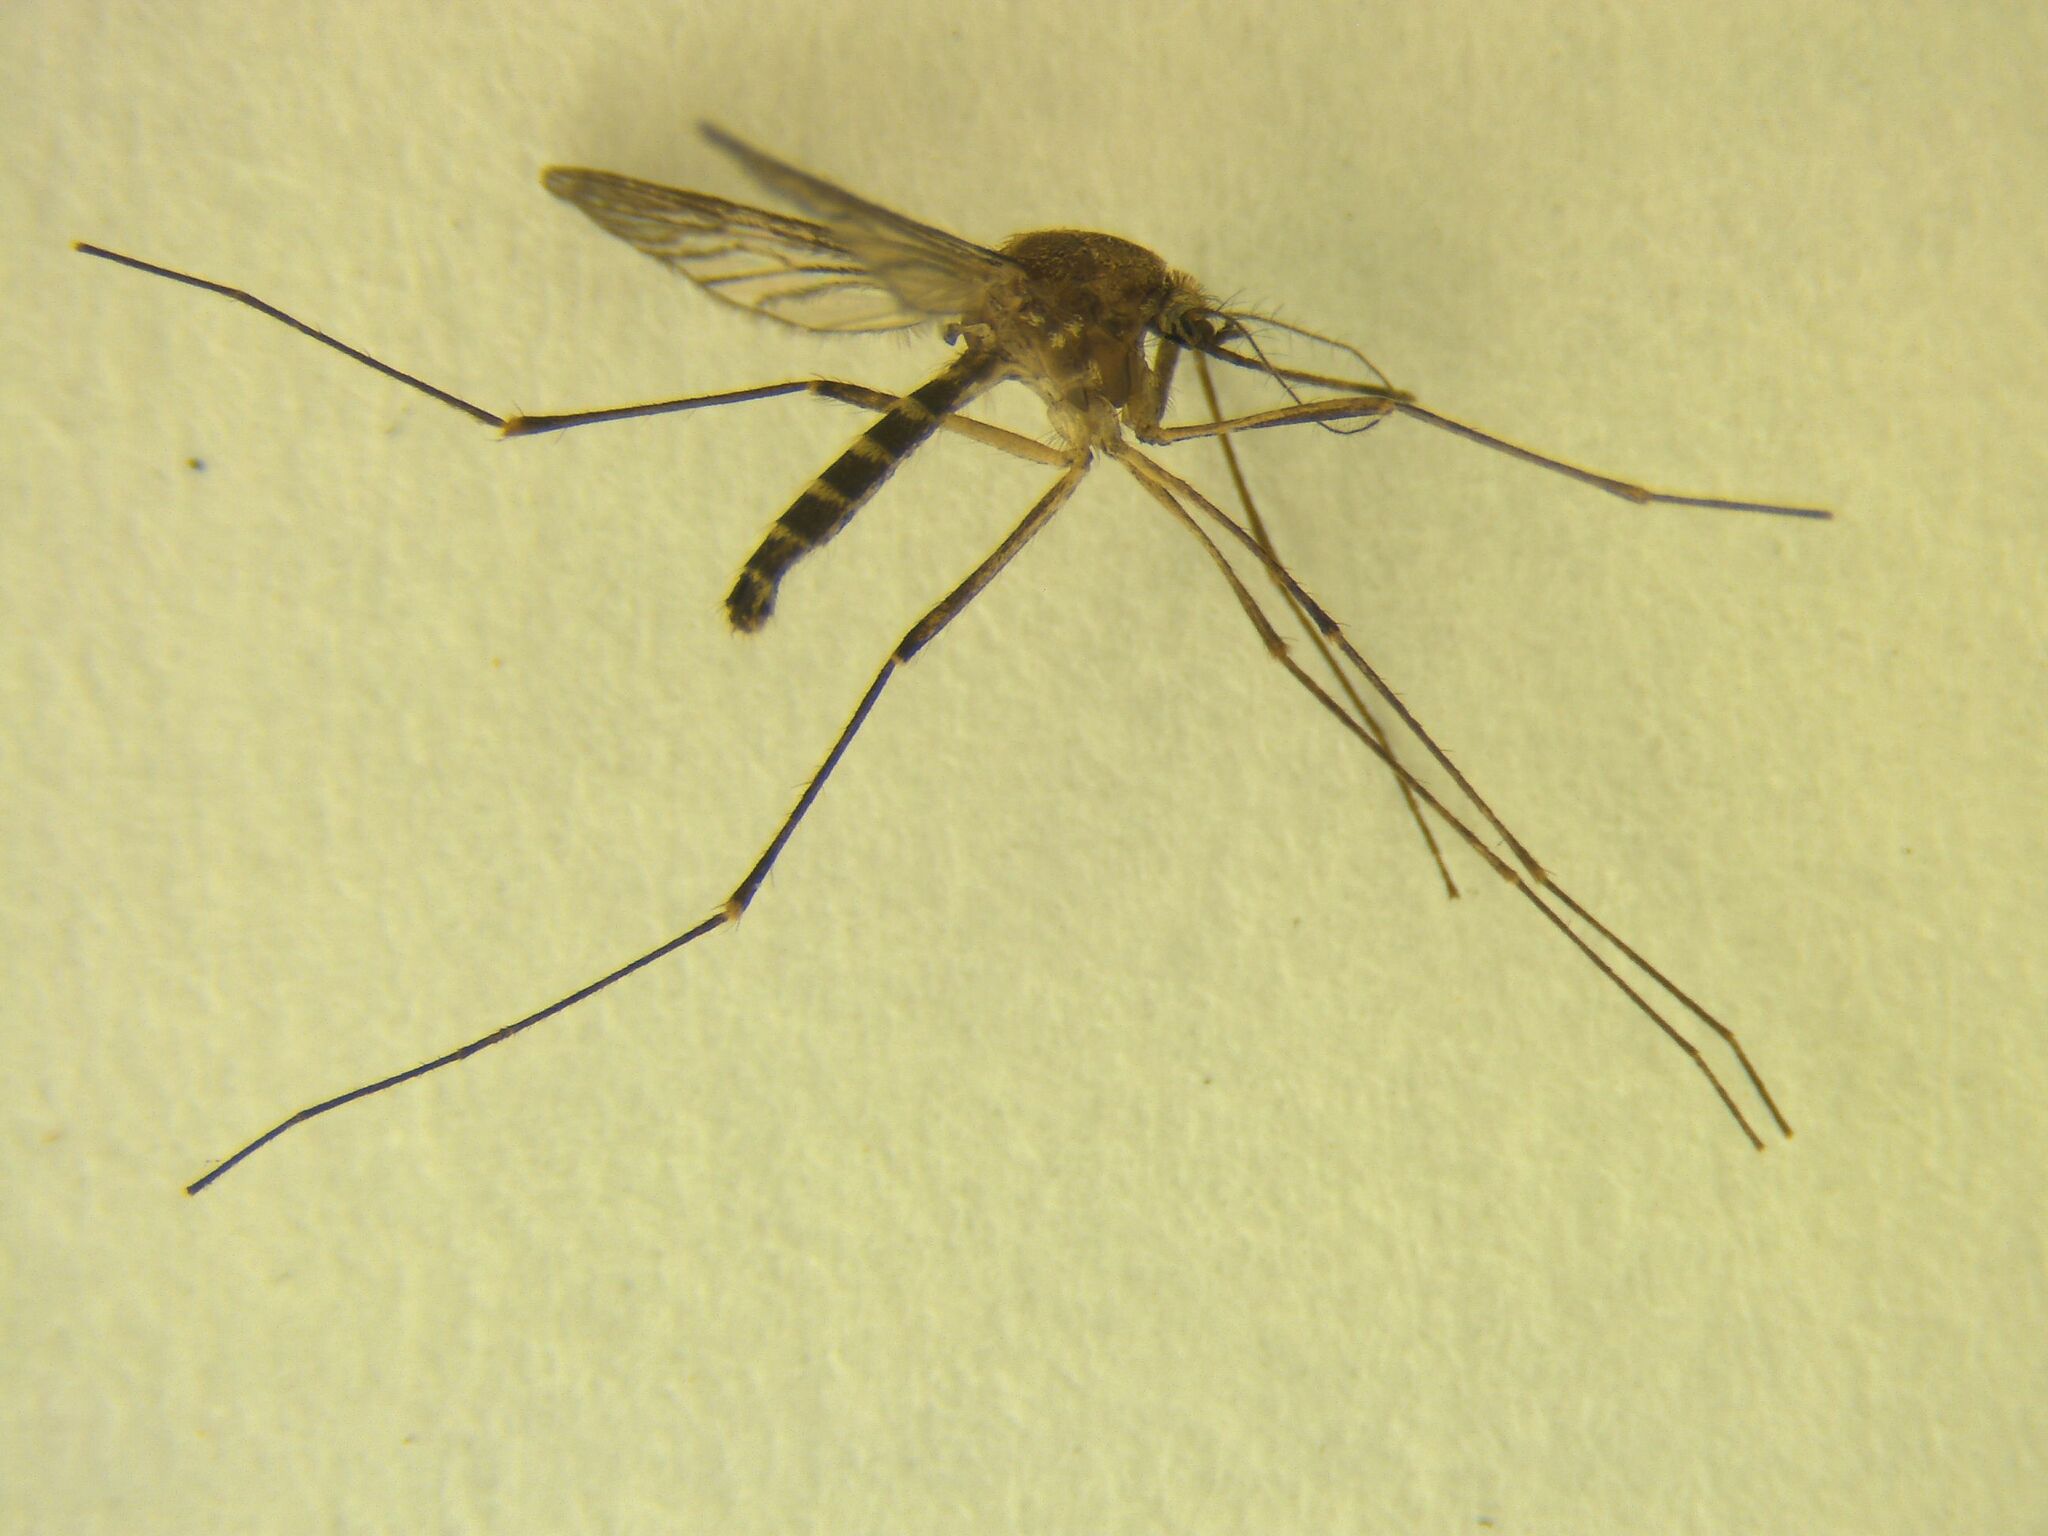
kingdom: Animalia
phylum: Arthropoda
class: Insecta
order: Diptera
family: Culicidae
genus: Culex
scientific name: Culex pervigilans
